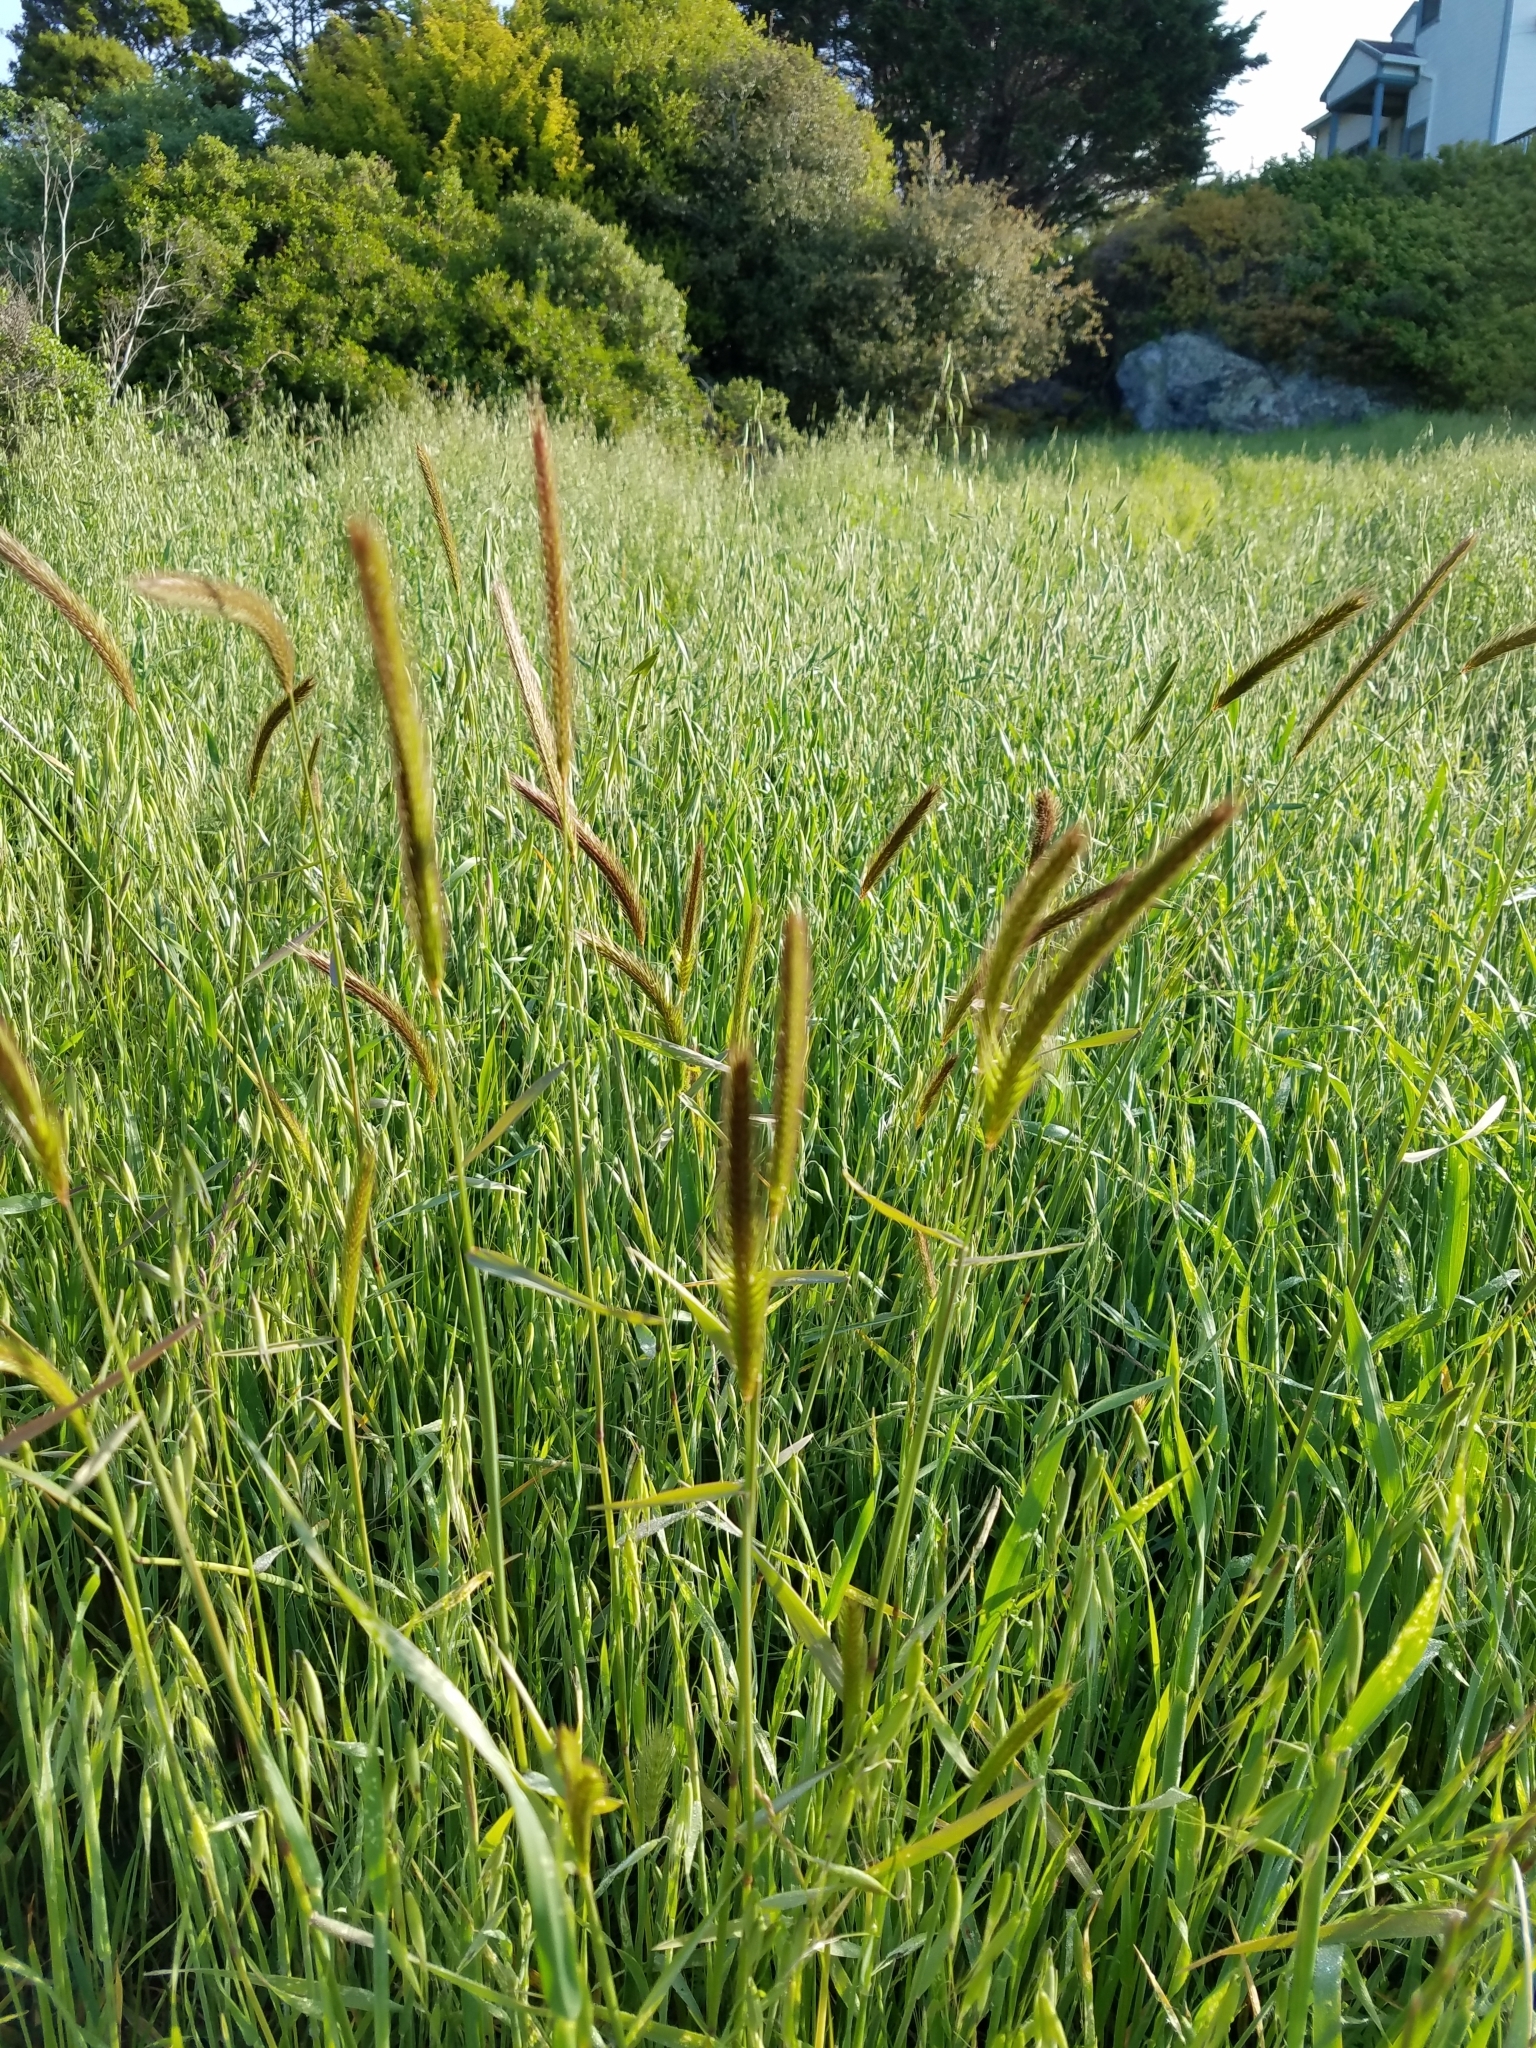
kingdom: Plantae
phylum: Tracheophyta
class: Liliopsida
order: Poales
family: Poaceae
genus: Hordeum
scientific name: Hordeum brachyantherum
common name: Meadow barley
